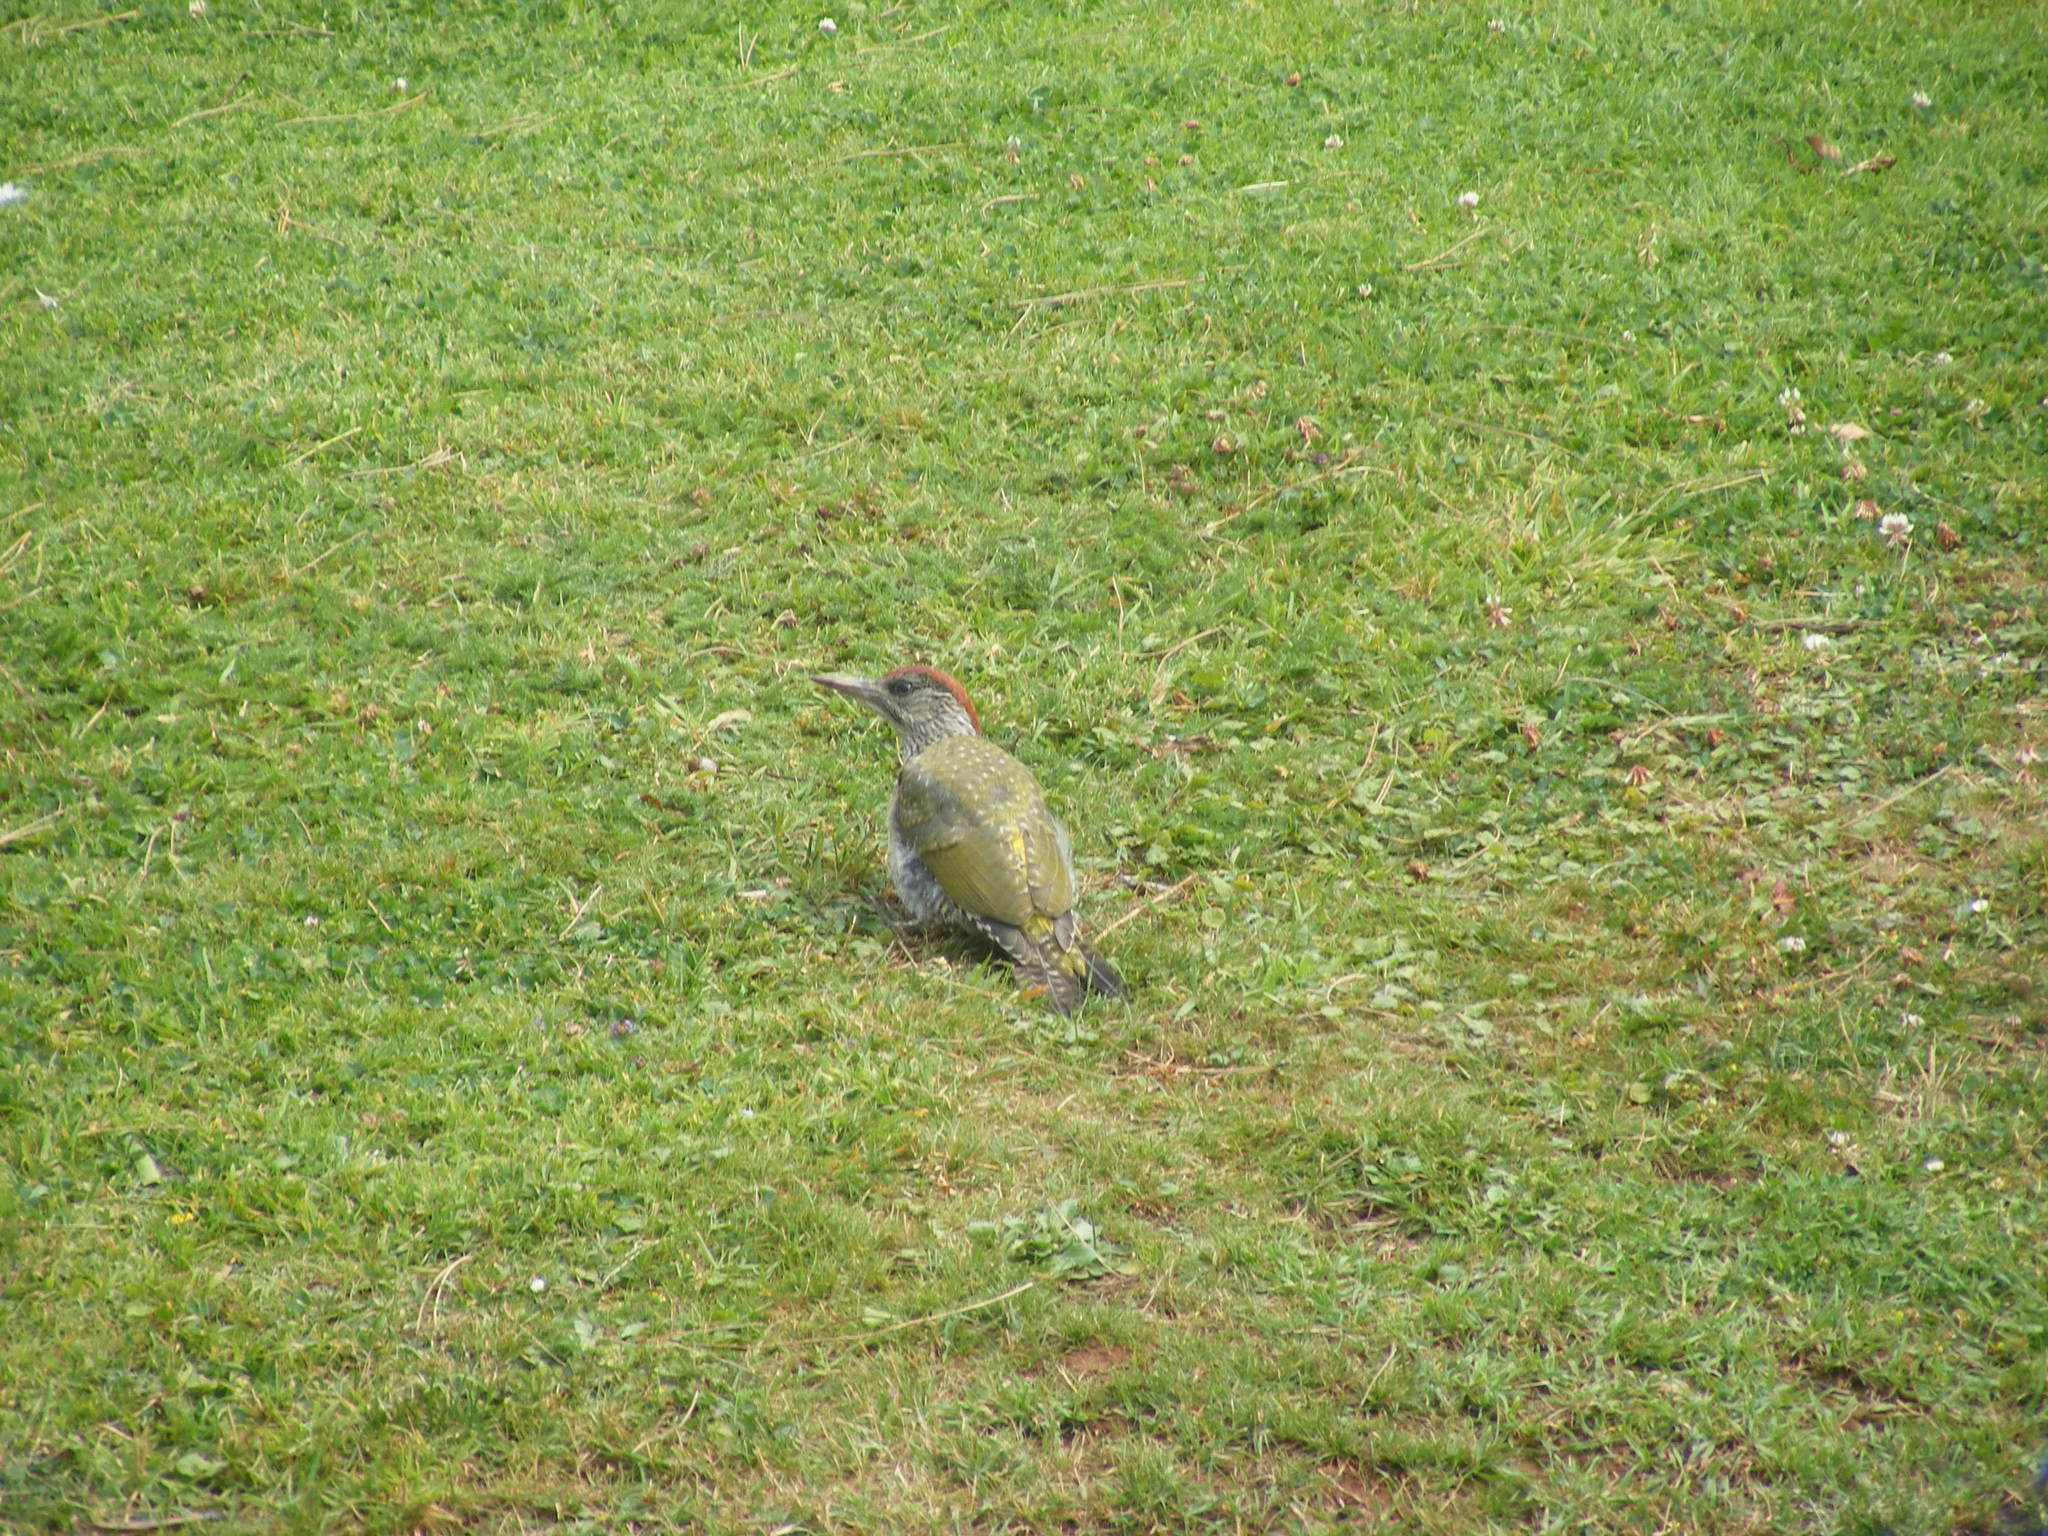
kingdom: Animalia
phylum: Chordata
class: Aves
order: Piciformes
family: Picidae
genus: Picus
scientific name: Picus viridis
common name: European green woodpecker
